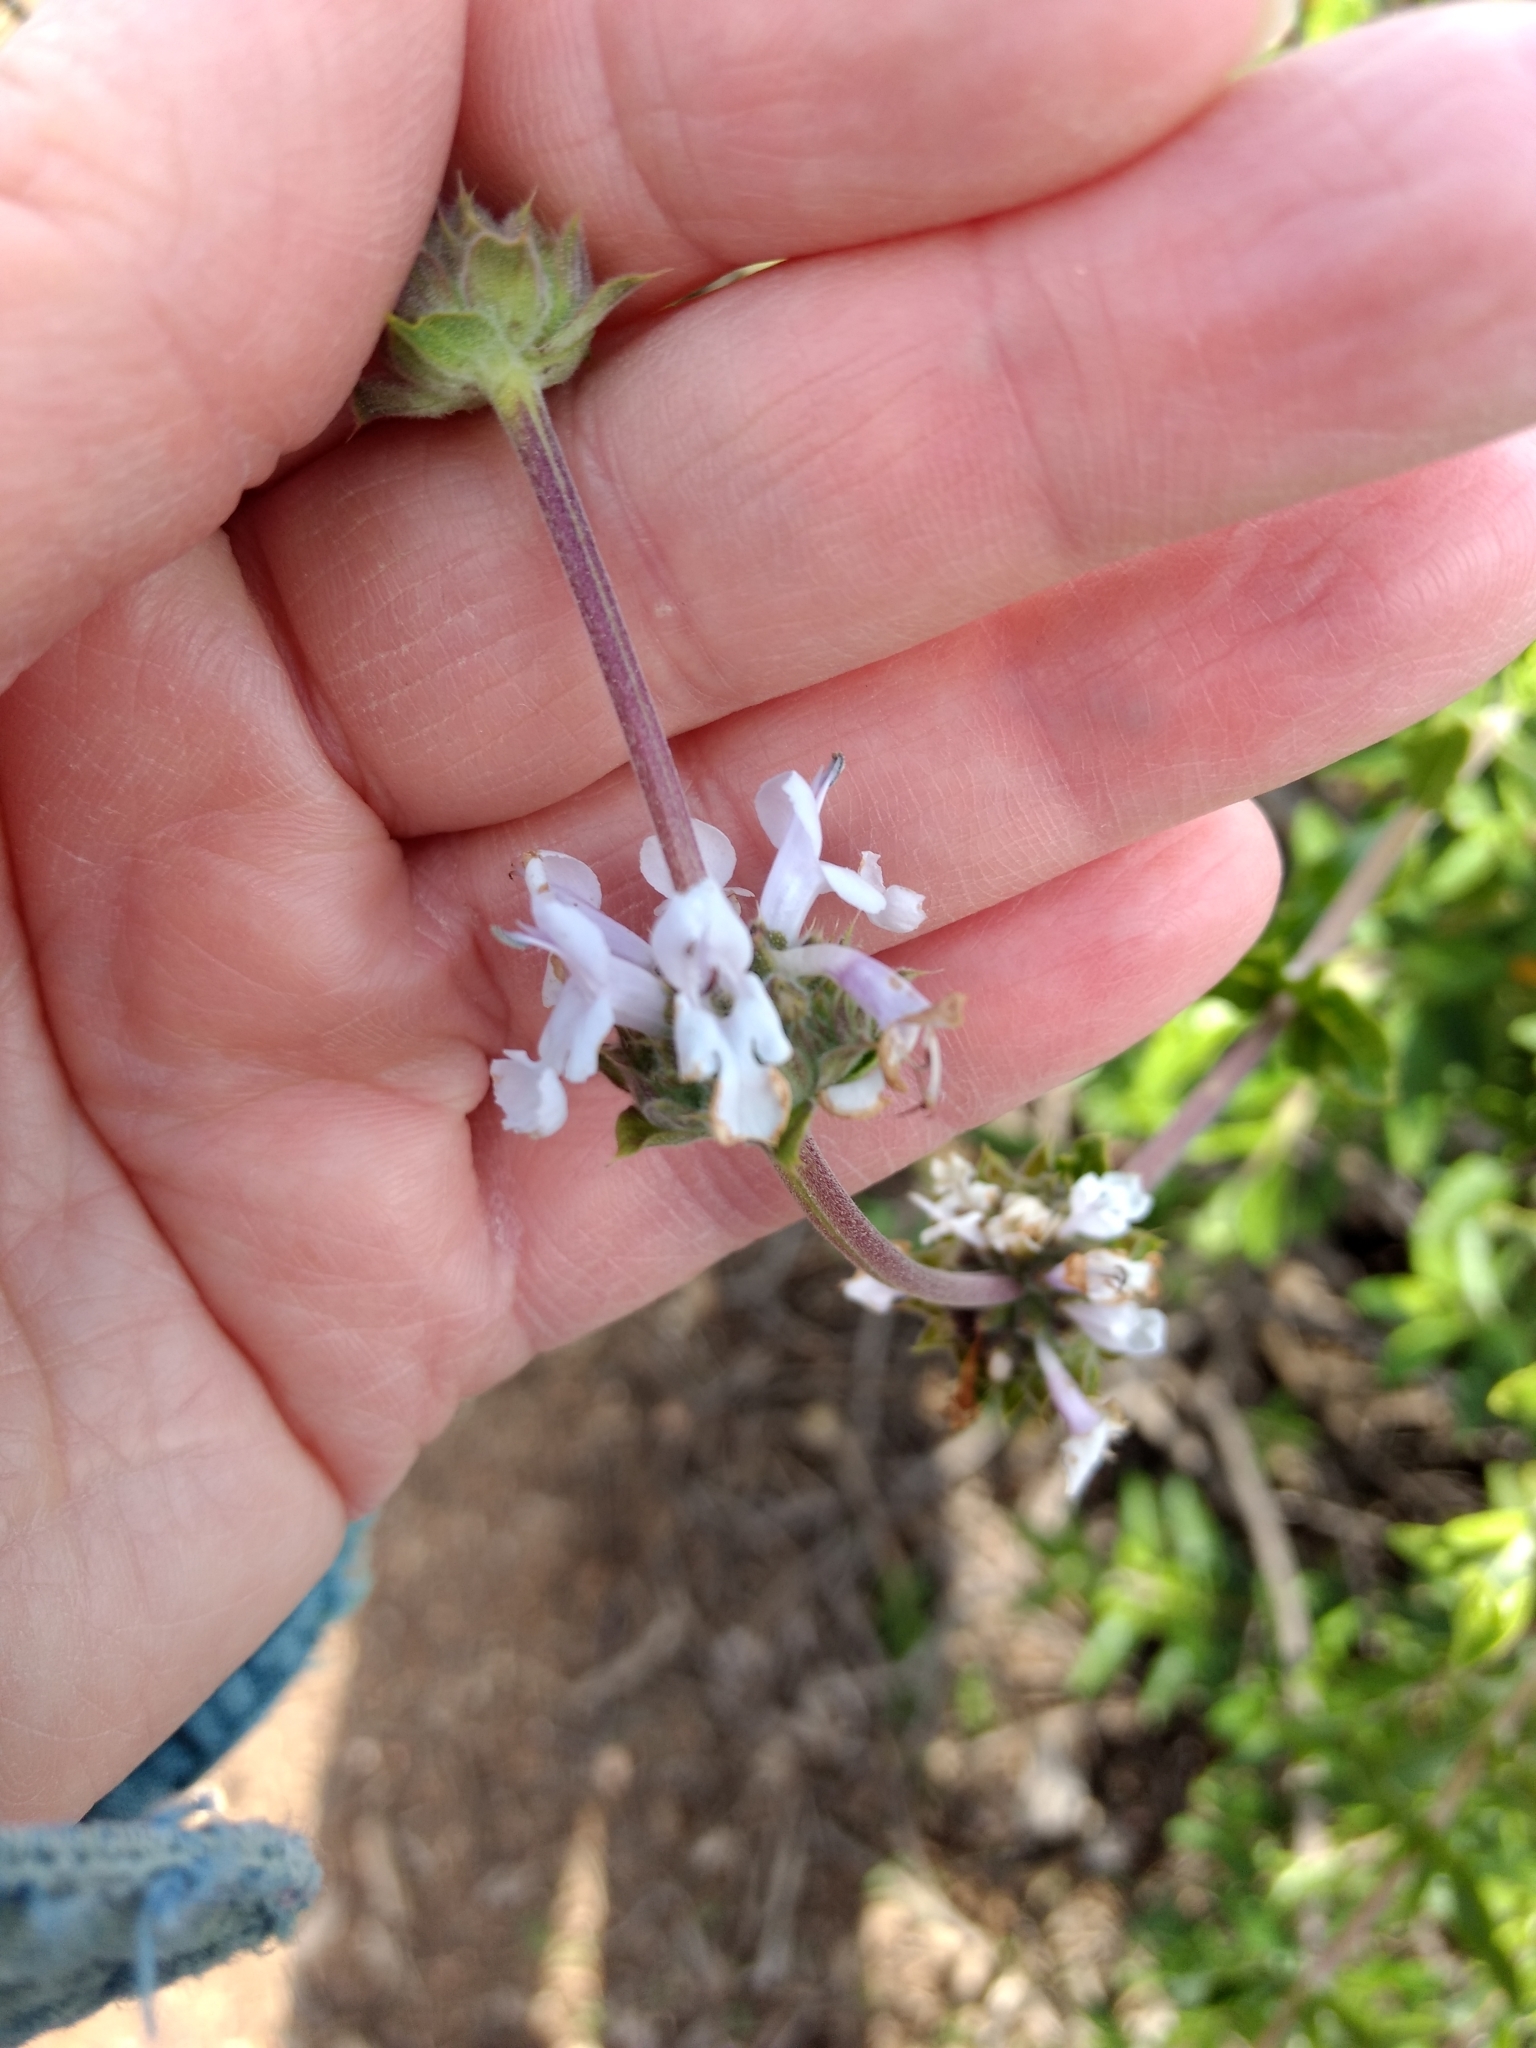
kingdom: Plantae
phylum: Tracheophyta
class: Magnoliopsida
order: Lamiales
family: Lamiaceae
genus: Salvia
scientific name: Salvia mellifera
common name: Black sage
